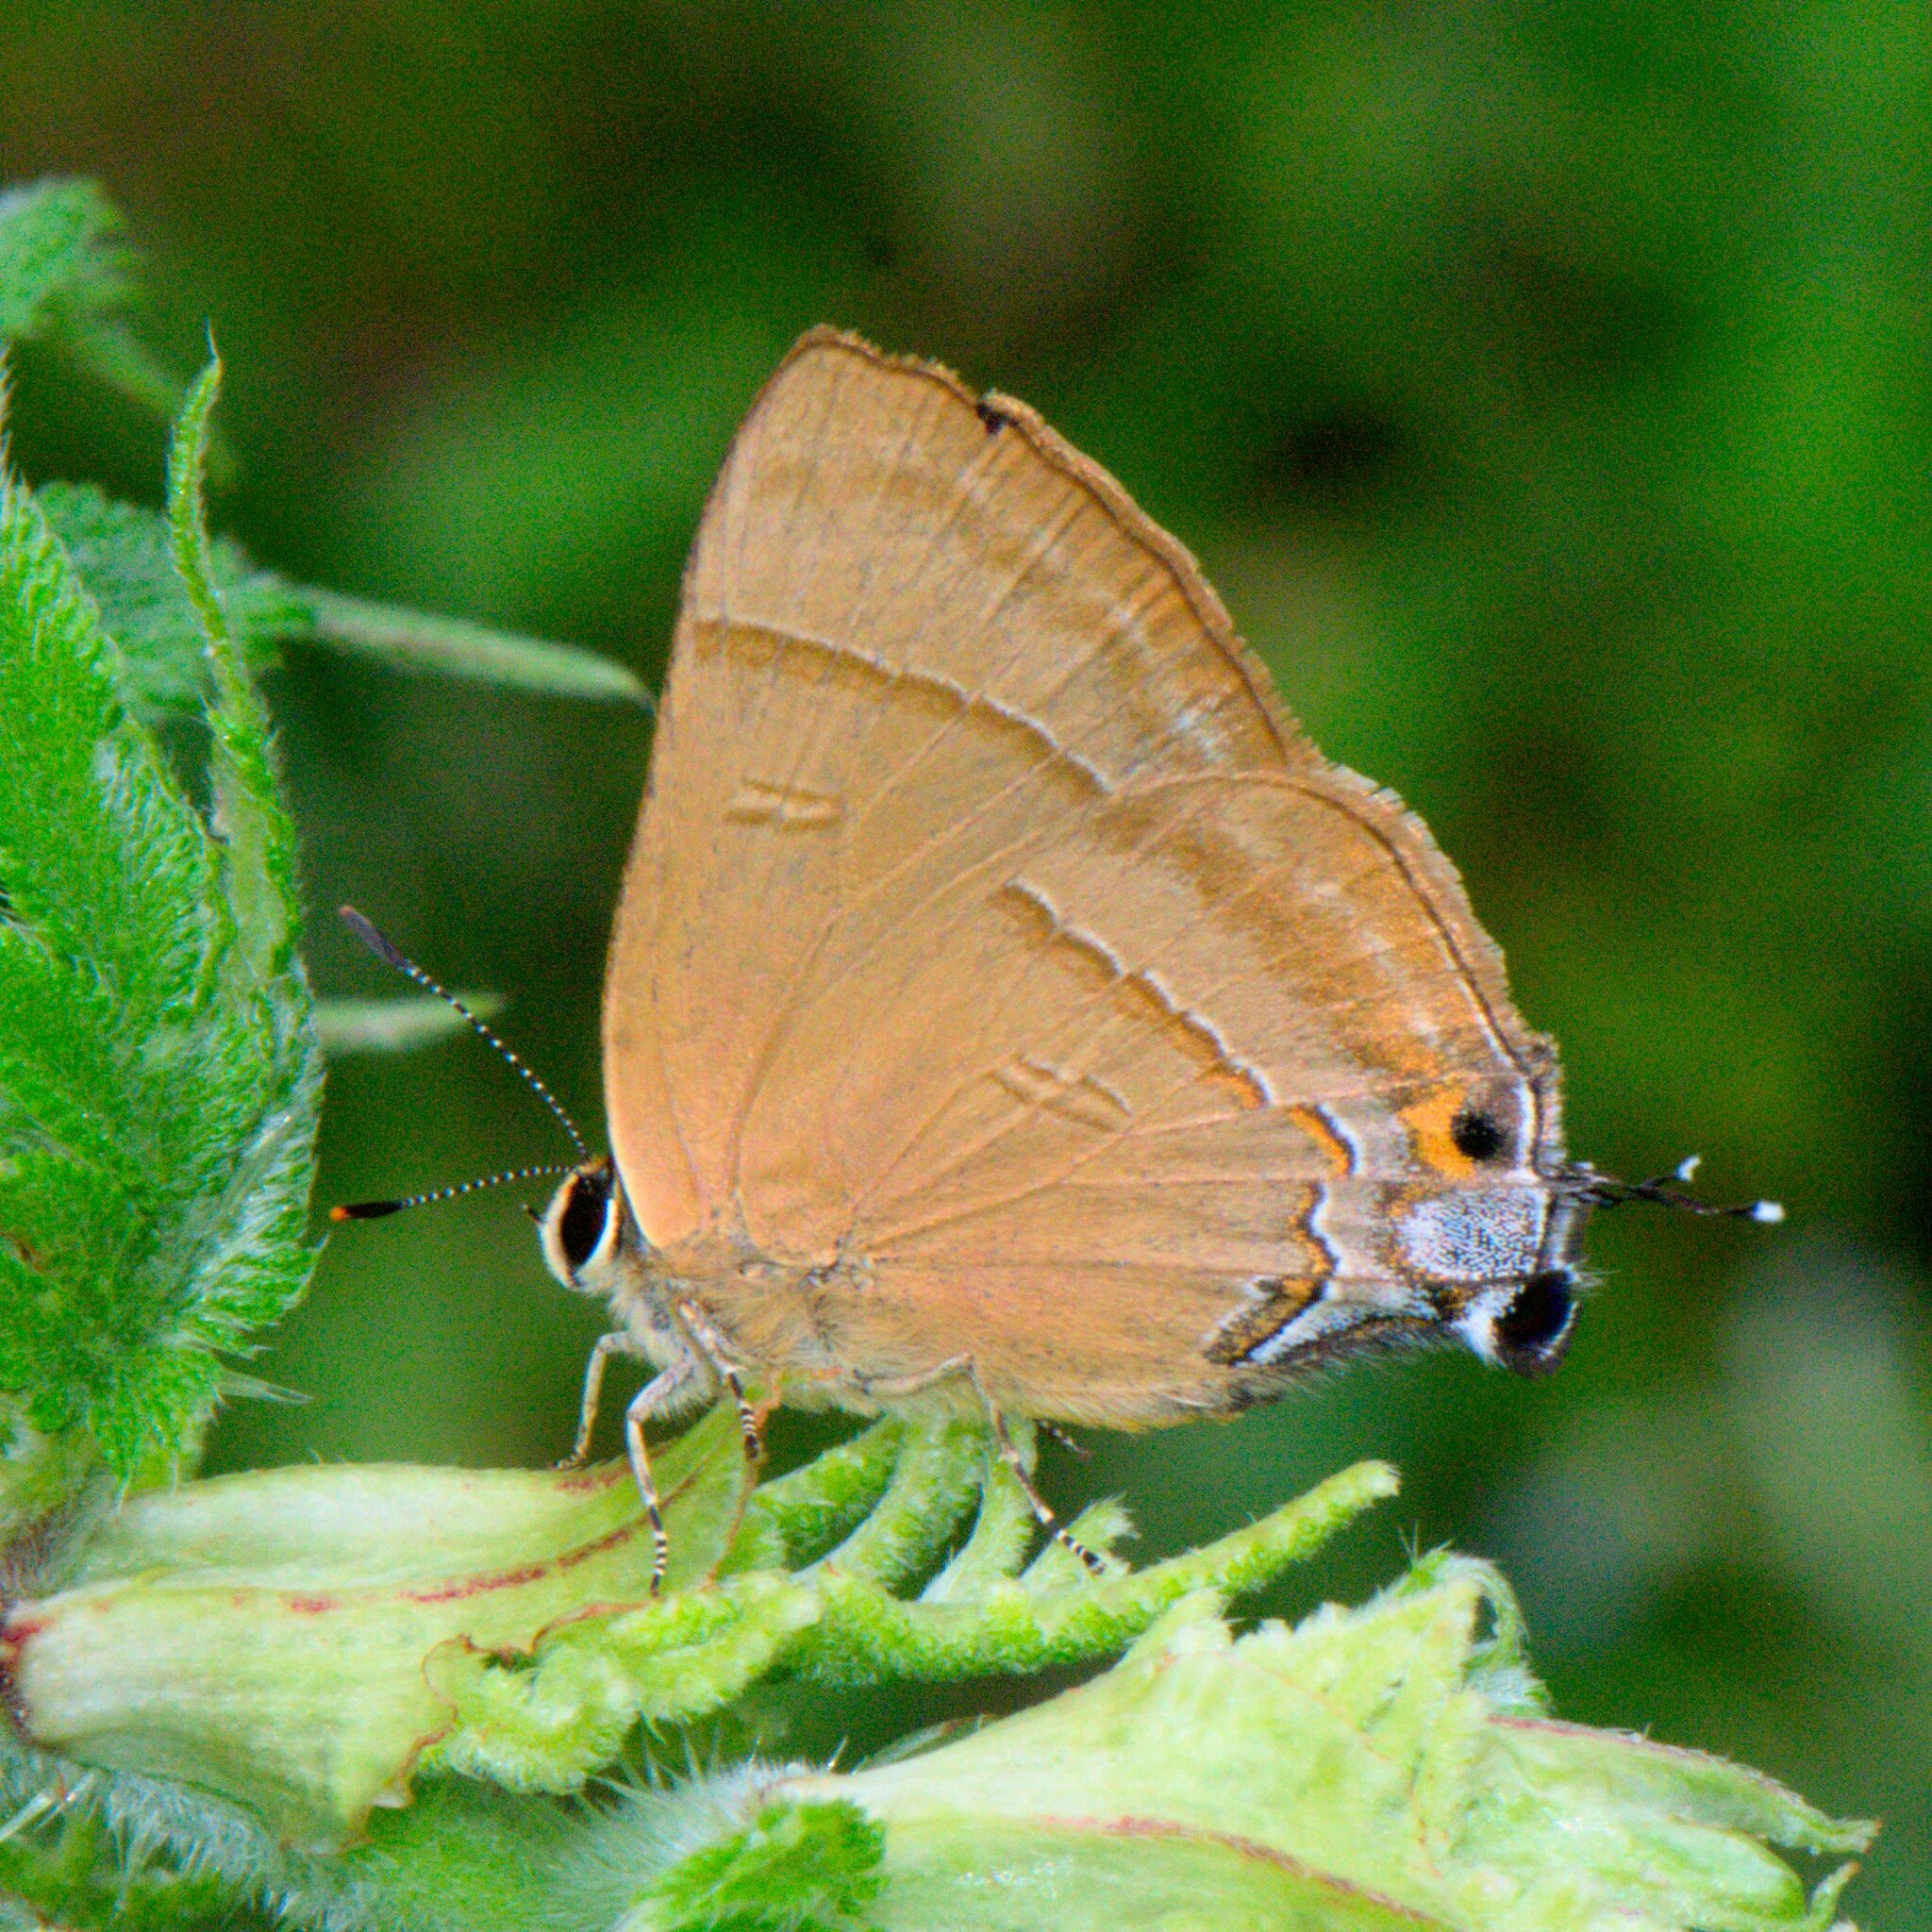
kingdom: Animalia
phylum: Arthropoda
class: Insecta
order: Lepidoptera
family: Lycaenidae
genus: Rapala
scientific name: Rapala nissa
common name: Common flash
